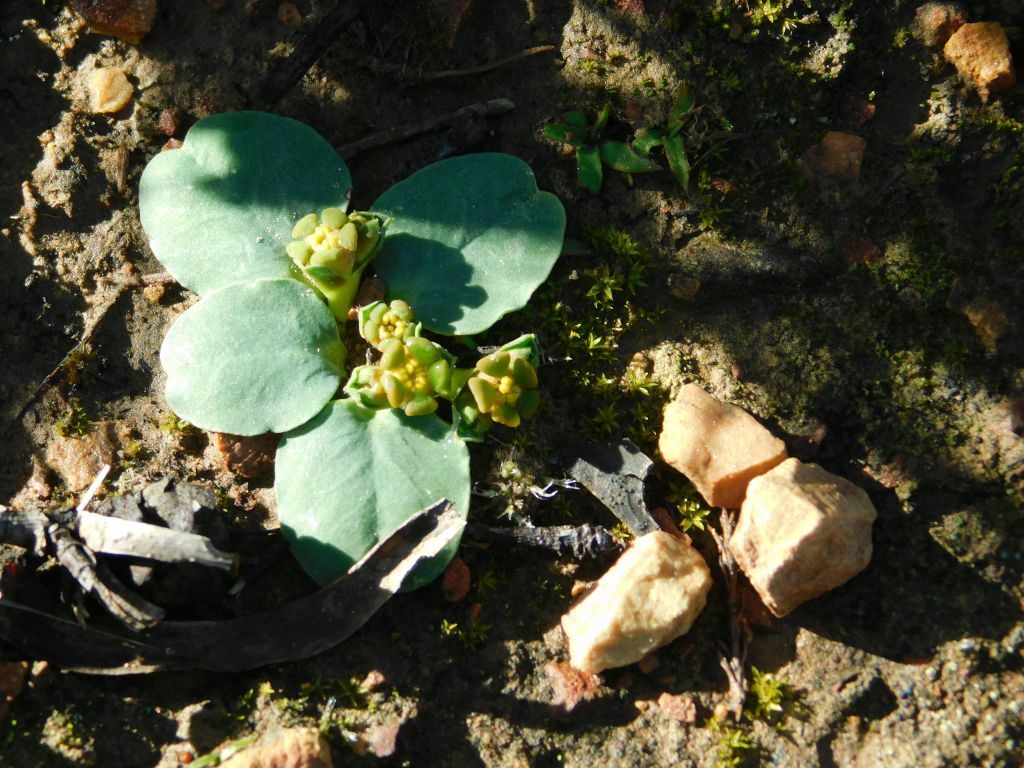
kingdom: Plantae
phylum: Tracheophyta
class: Magnoliopsida
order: Malpighiales
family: Euphorbiaceae
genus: Euphorbia
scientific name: Euphorbia tuberosa
